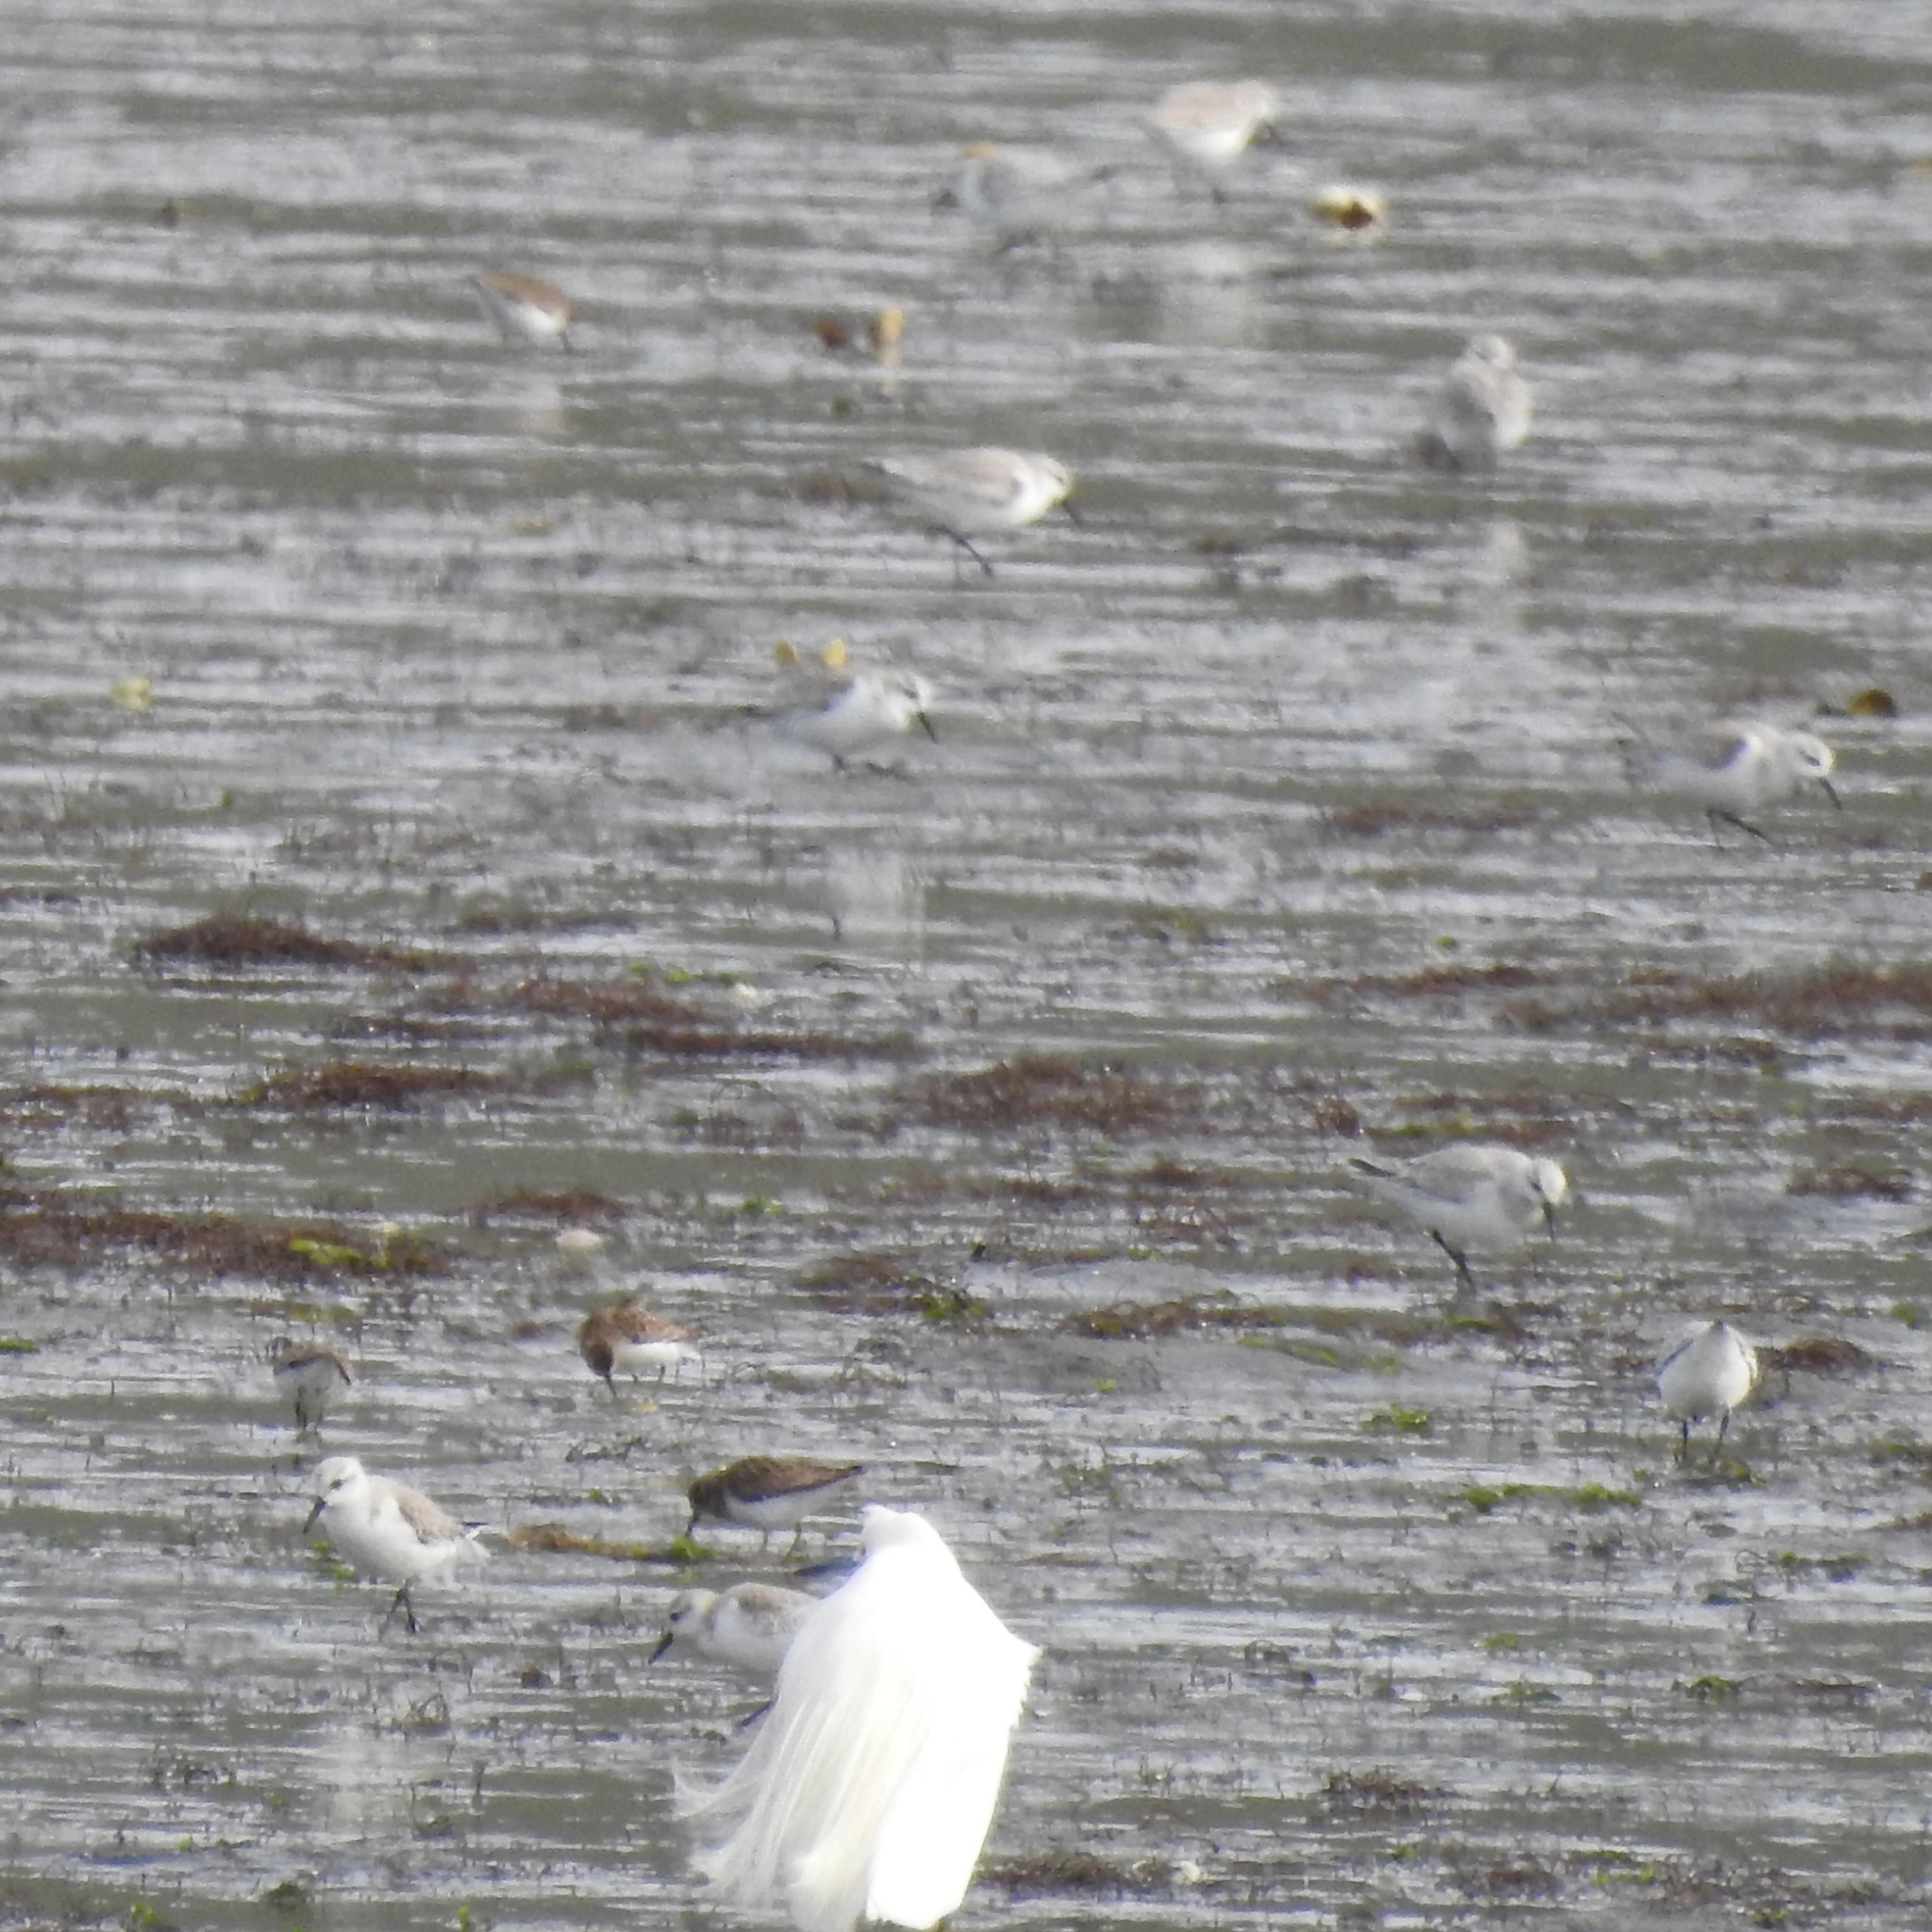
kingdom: Animalia
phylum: Chordata
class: Aves
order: Pelecaniformes
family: Ardeidae
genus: Egretta
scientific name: Egretta thula
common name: Snowy egret
